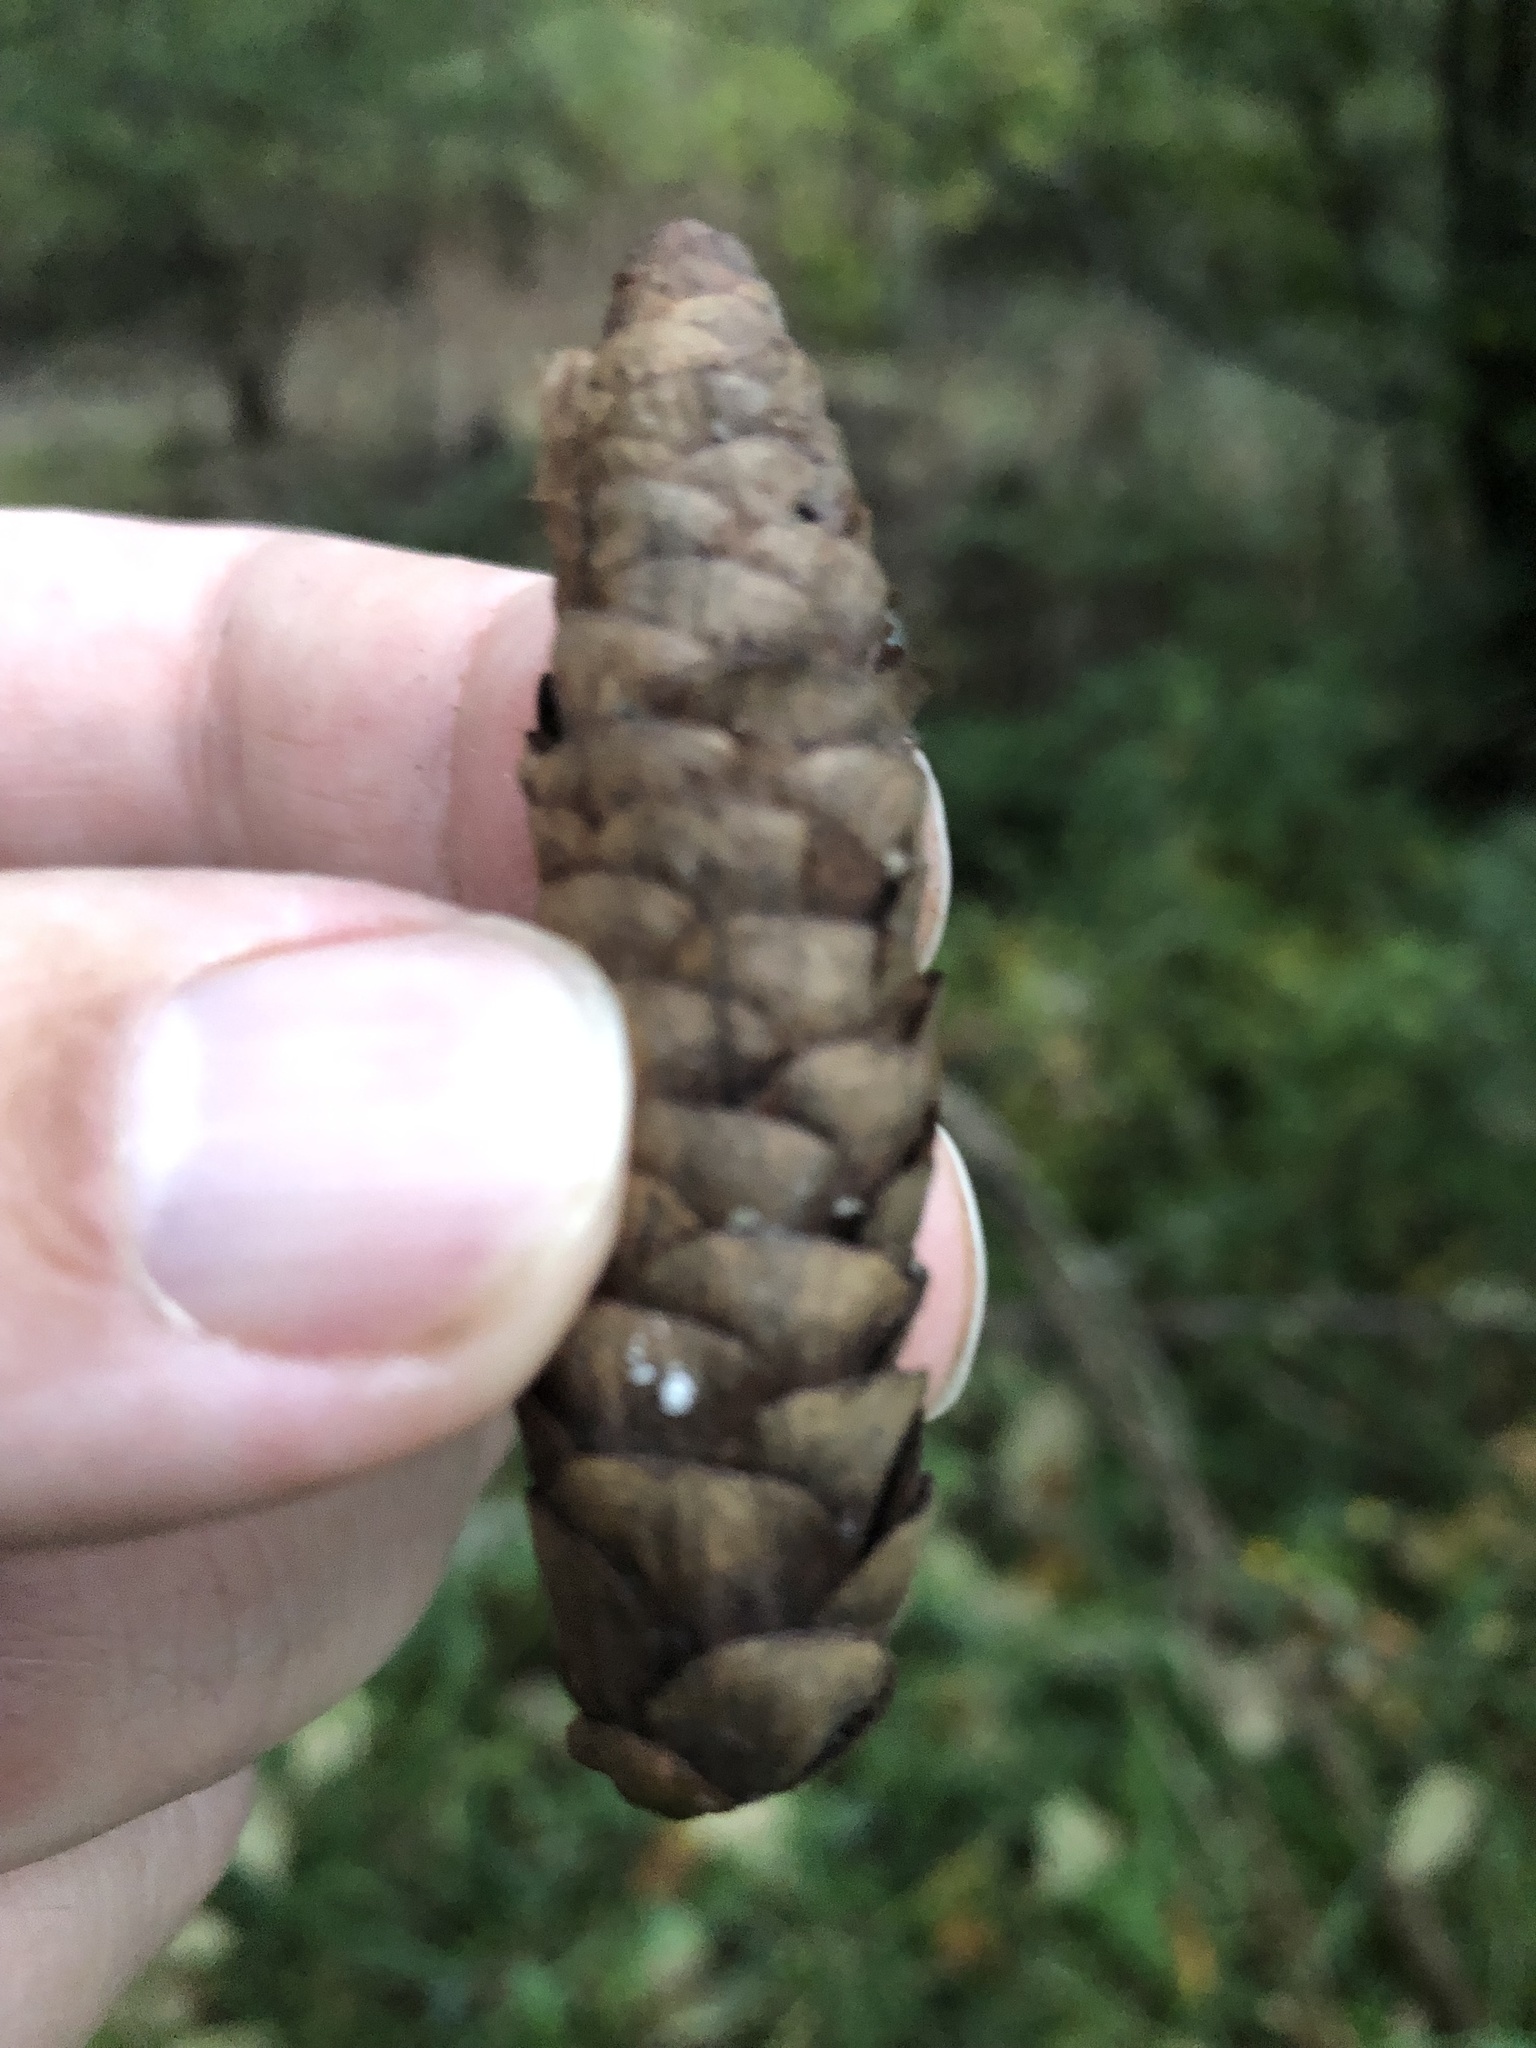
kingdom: Plantae
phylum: Tracheophyta
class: Pinopsida
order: Pinales
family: Pinaceae
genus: Picea
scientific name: Picea glauca
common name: White spruce
